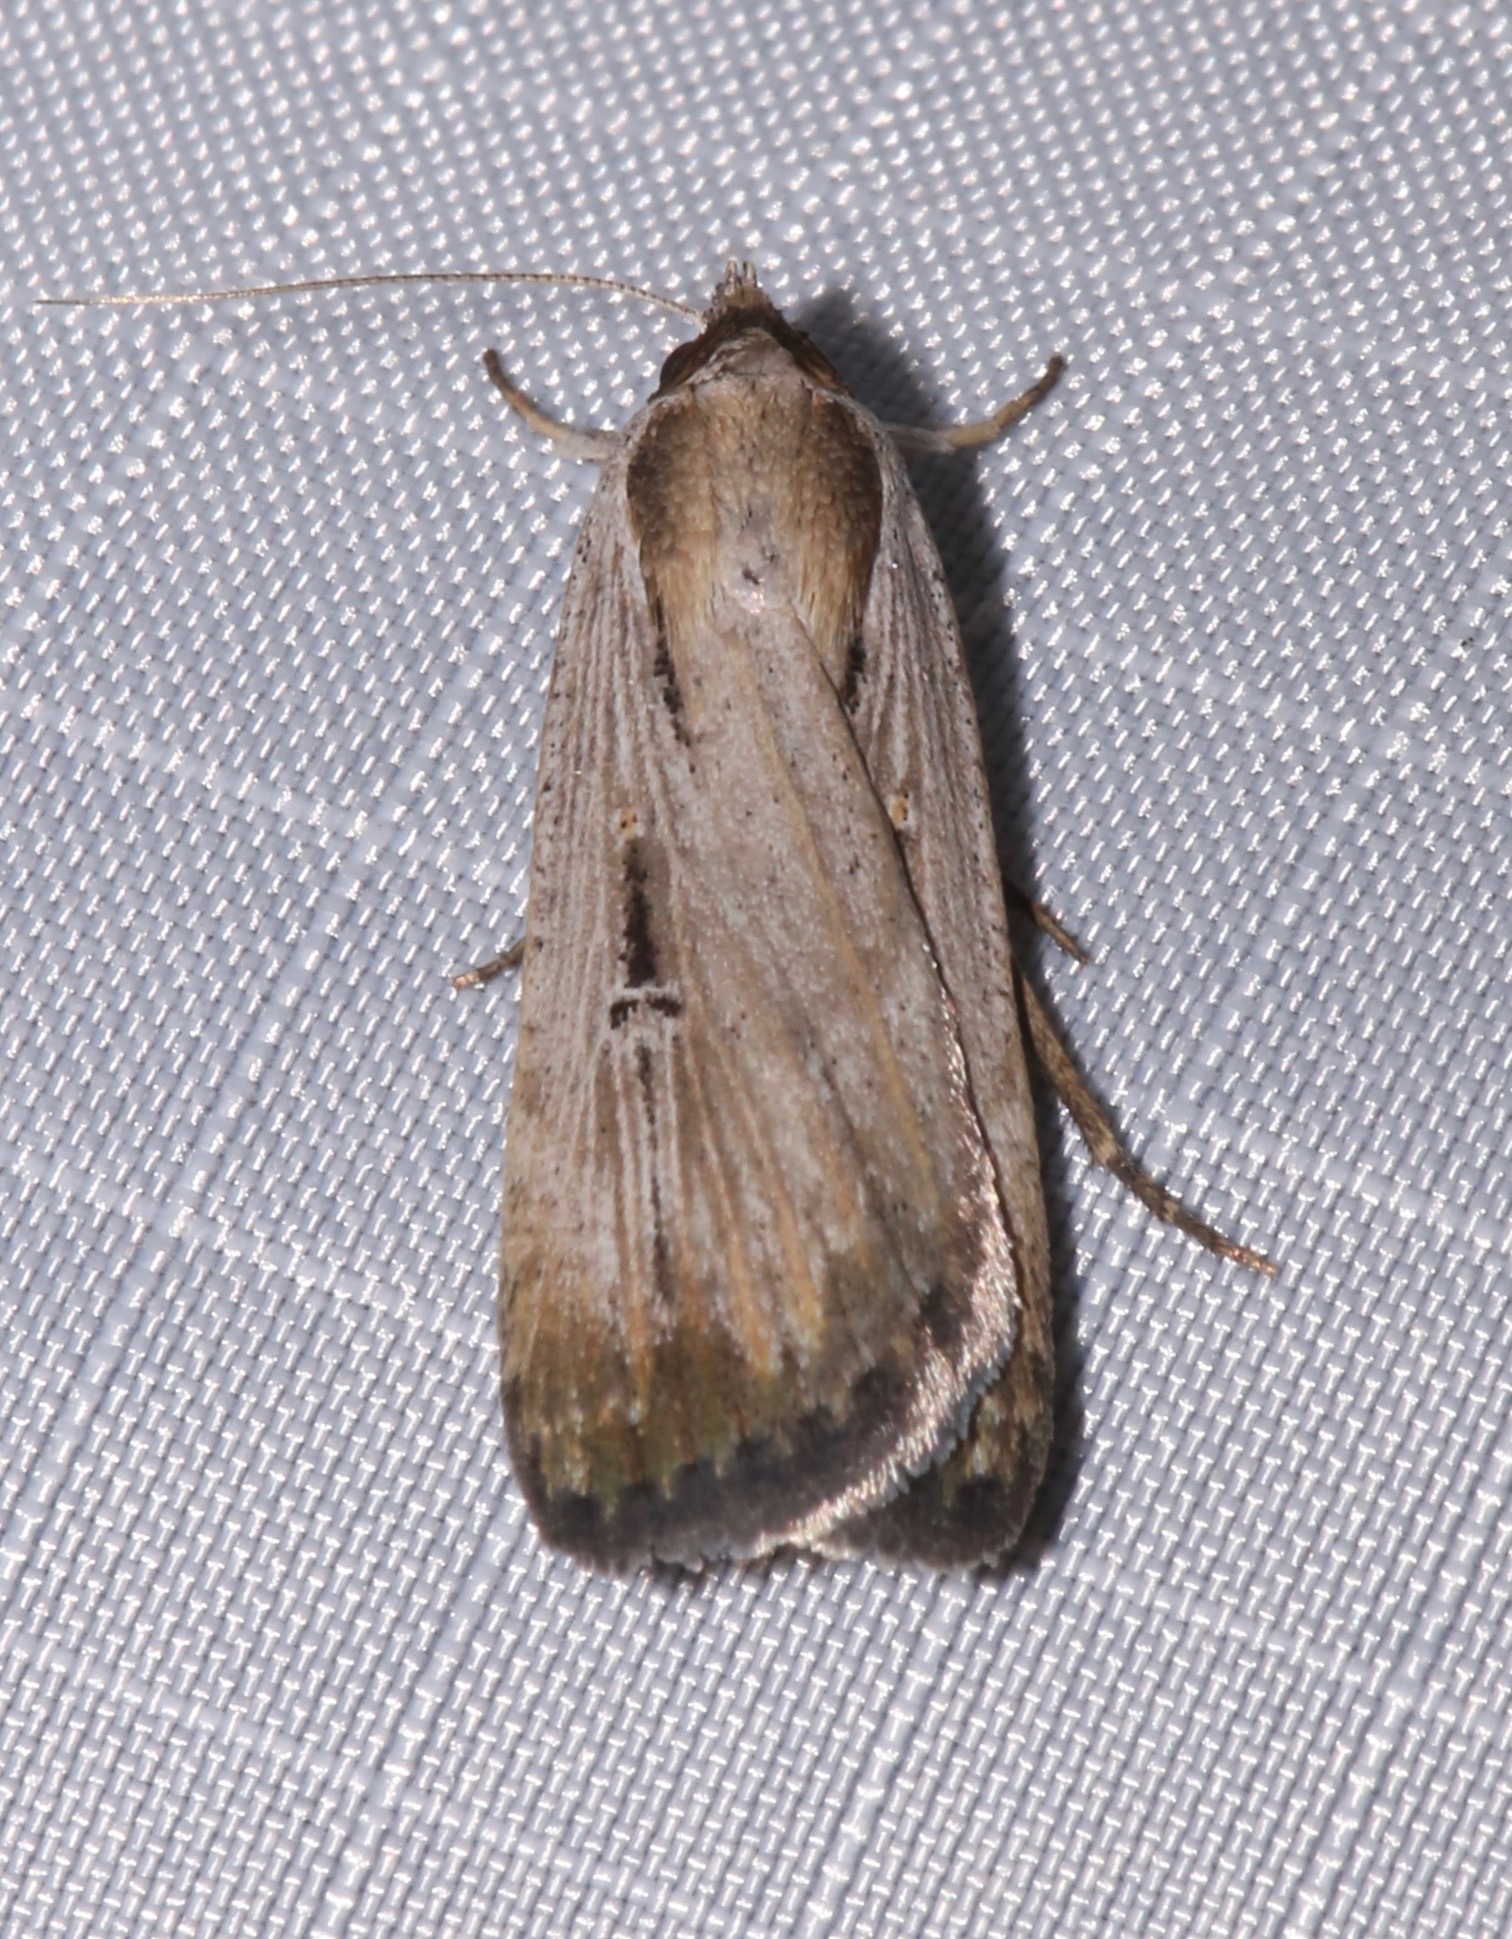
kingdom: Animalia
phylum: Arthropoda
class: Insecta
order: Lepidoptera
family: Noctuidae
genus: Tathorhynchus
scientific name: Tathorhynchus exsiccata
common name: Levant blackneck moth
